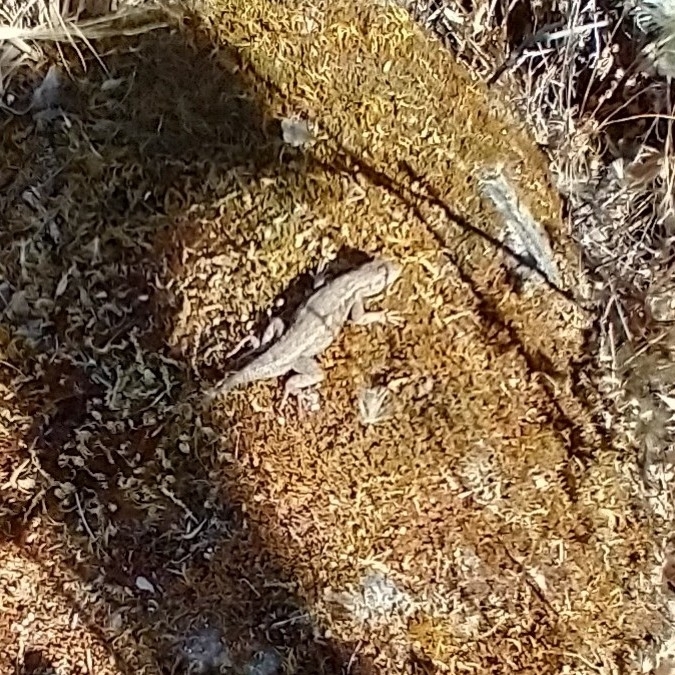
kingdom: Animalia
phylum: Chordata
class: Squamata
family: Phrynosomatidae
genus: Sceloporus
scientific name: Sceloporus occidentalis
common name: Western fence lizard
